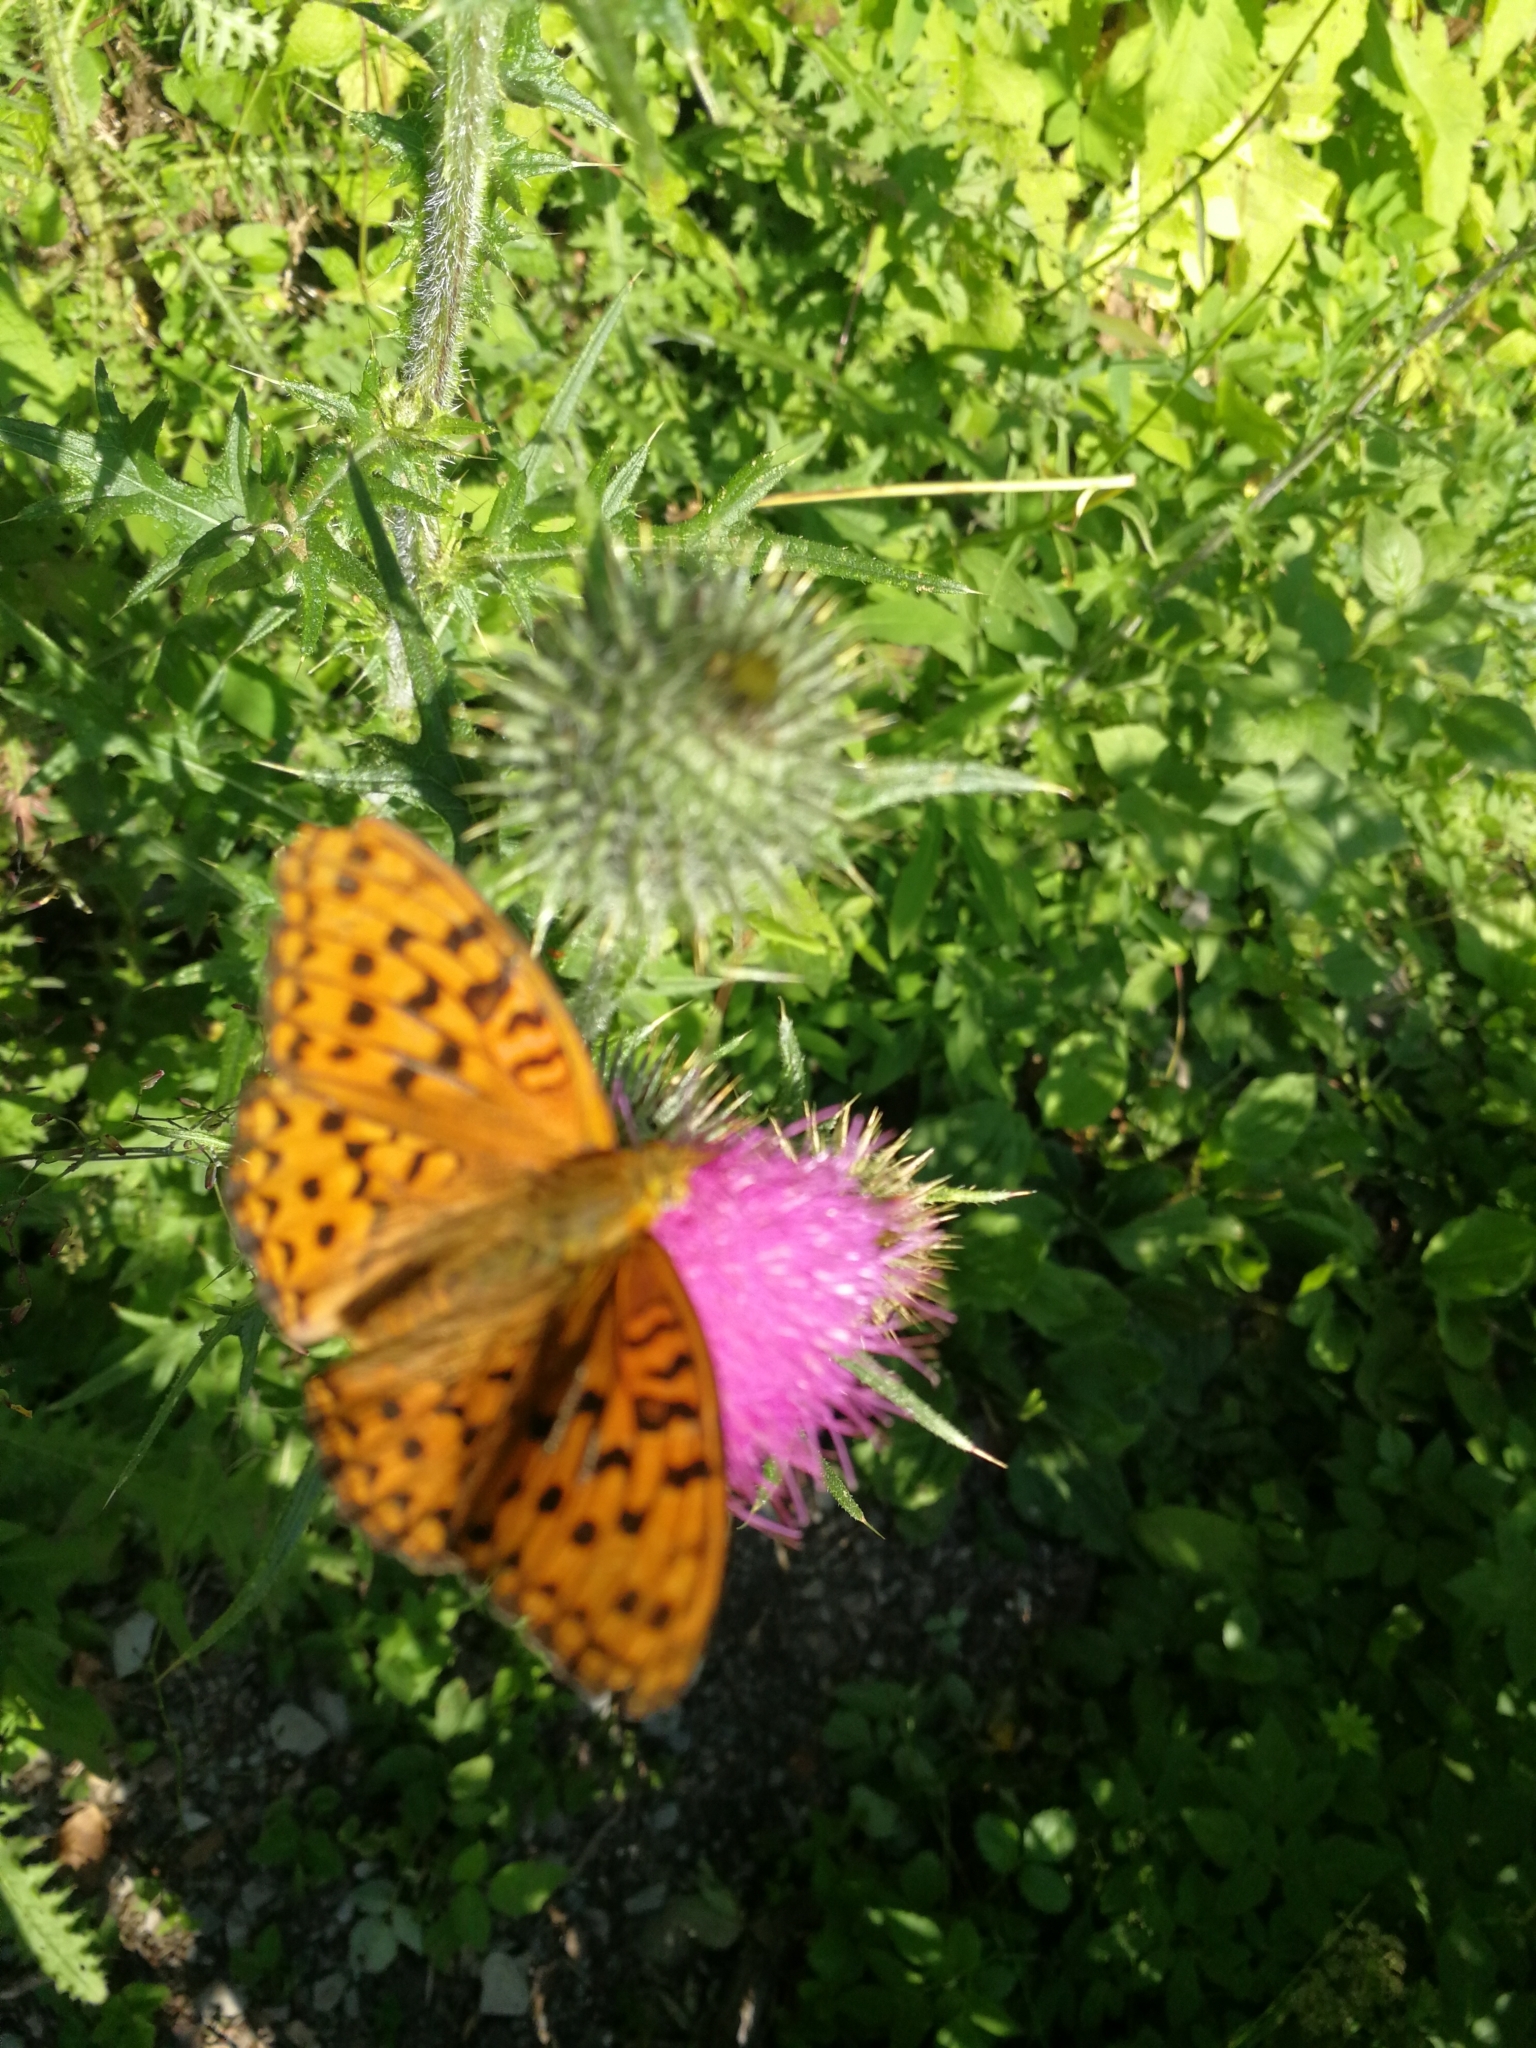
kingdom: Animalia
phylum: Arthropoda
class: Insecta
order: Lepidoptera
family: Nymphalidae
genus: Fabriciana
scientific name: Fabriciana adippe
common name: High brown fritillary
